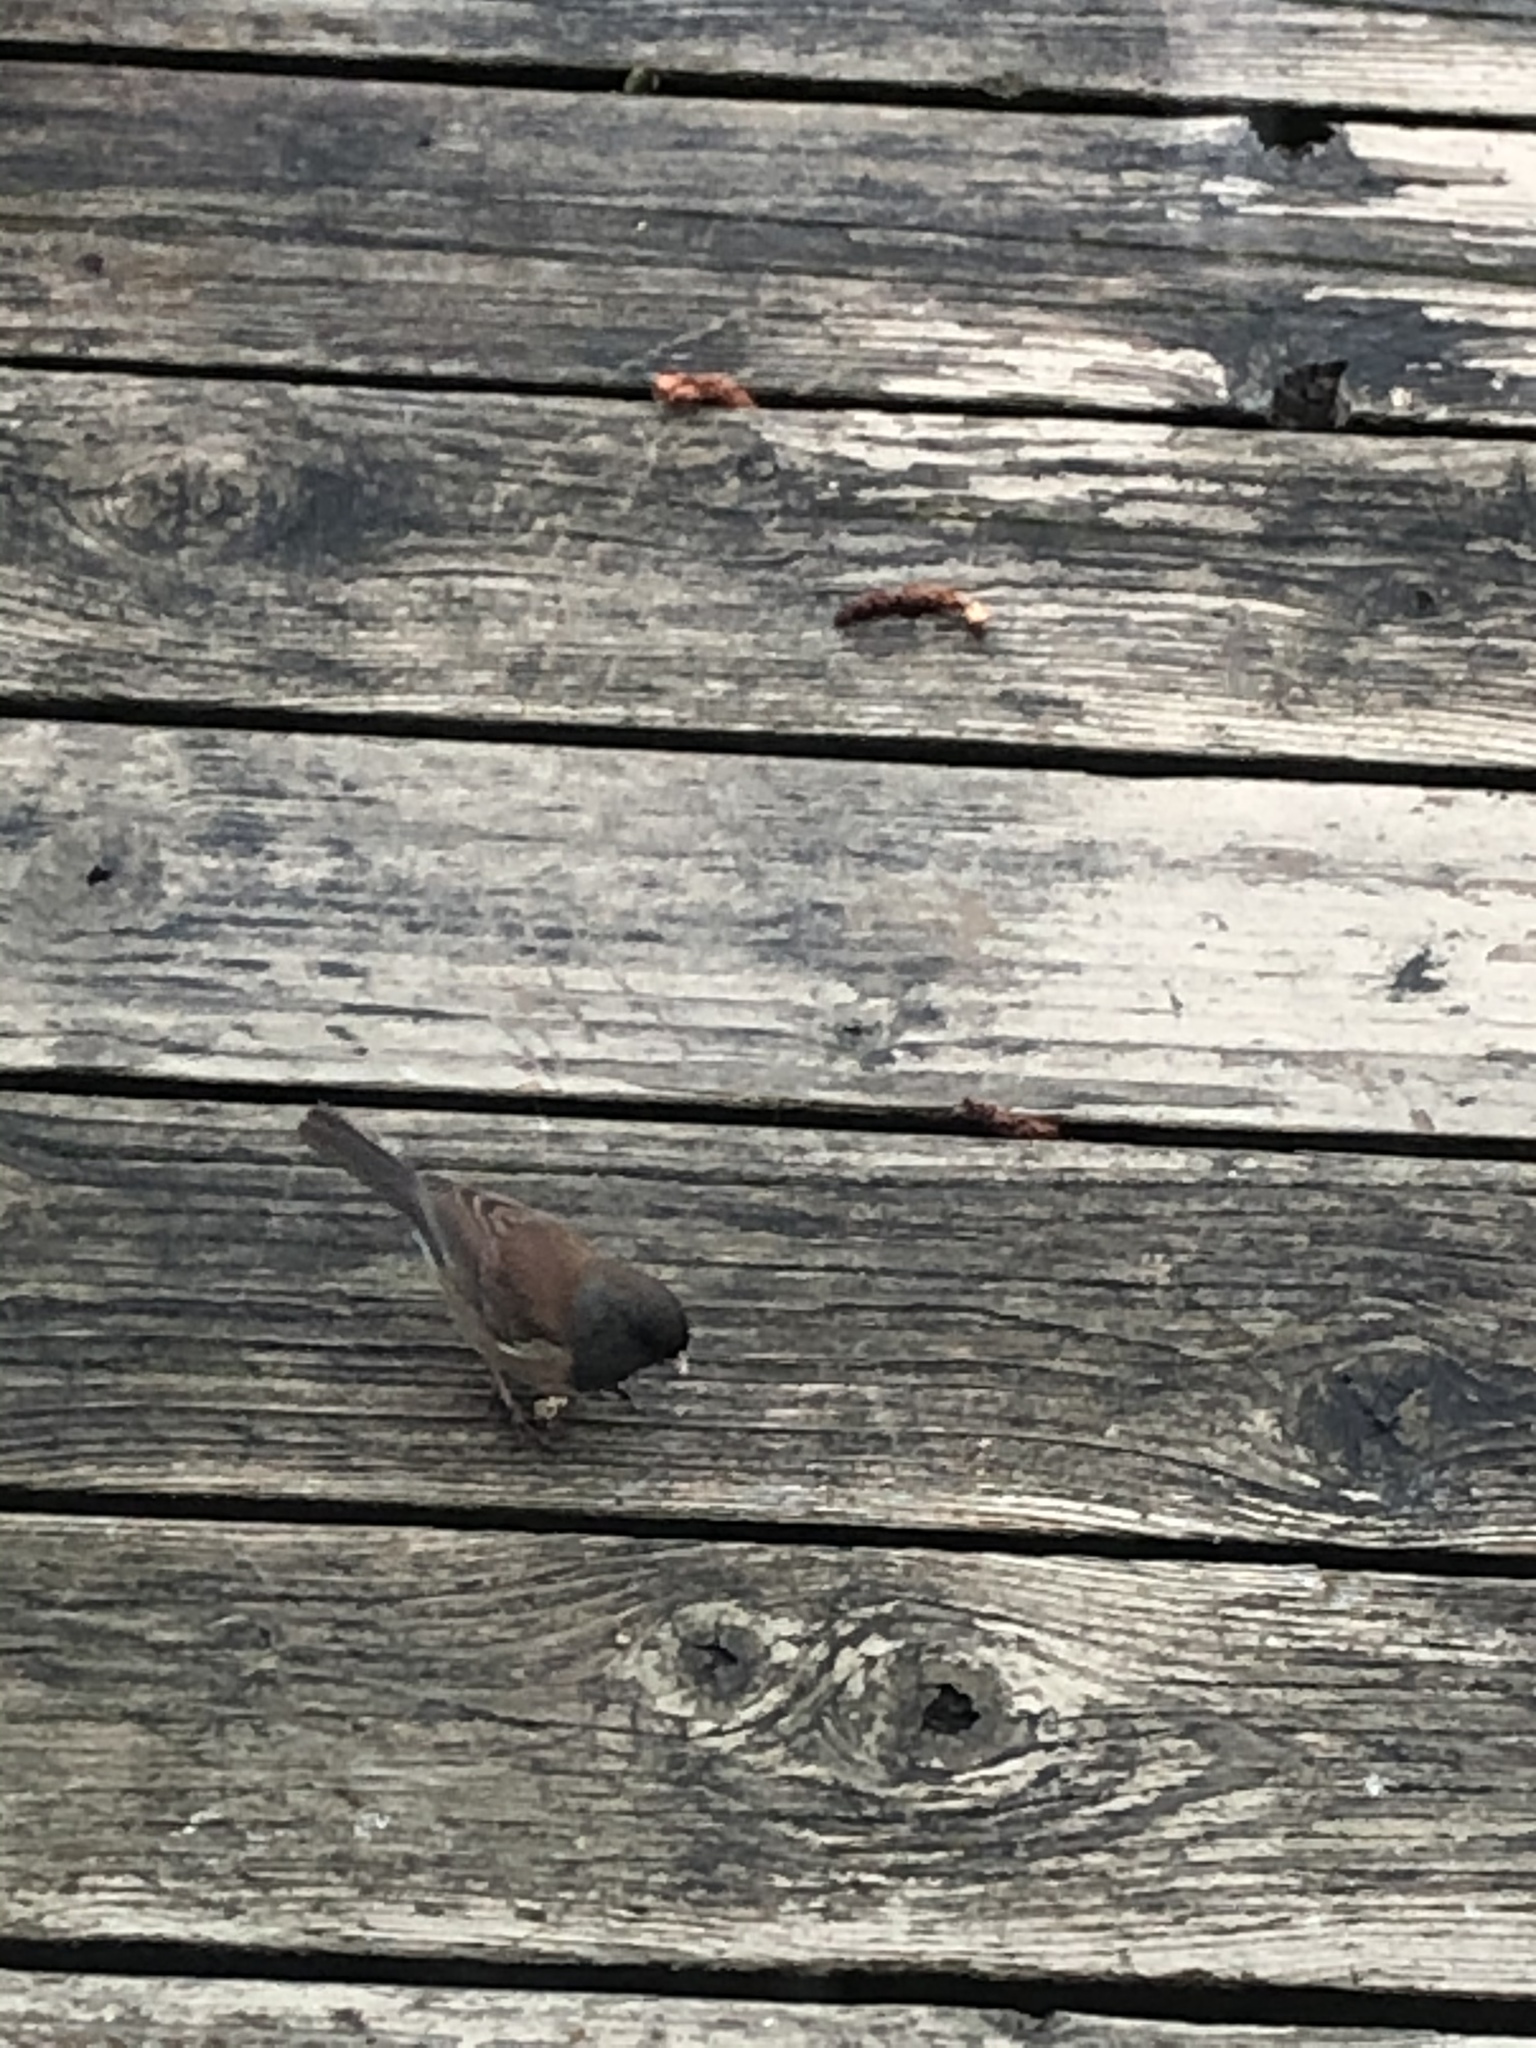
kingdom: Animalia
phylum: Chordata
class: Aves
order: Passeriformes
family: Passerellidae
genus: Junco
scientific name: Junco hyemalis
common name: Dark-eyed junco
